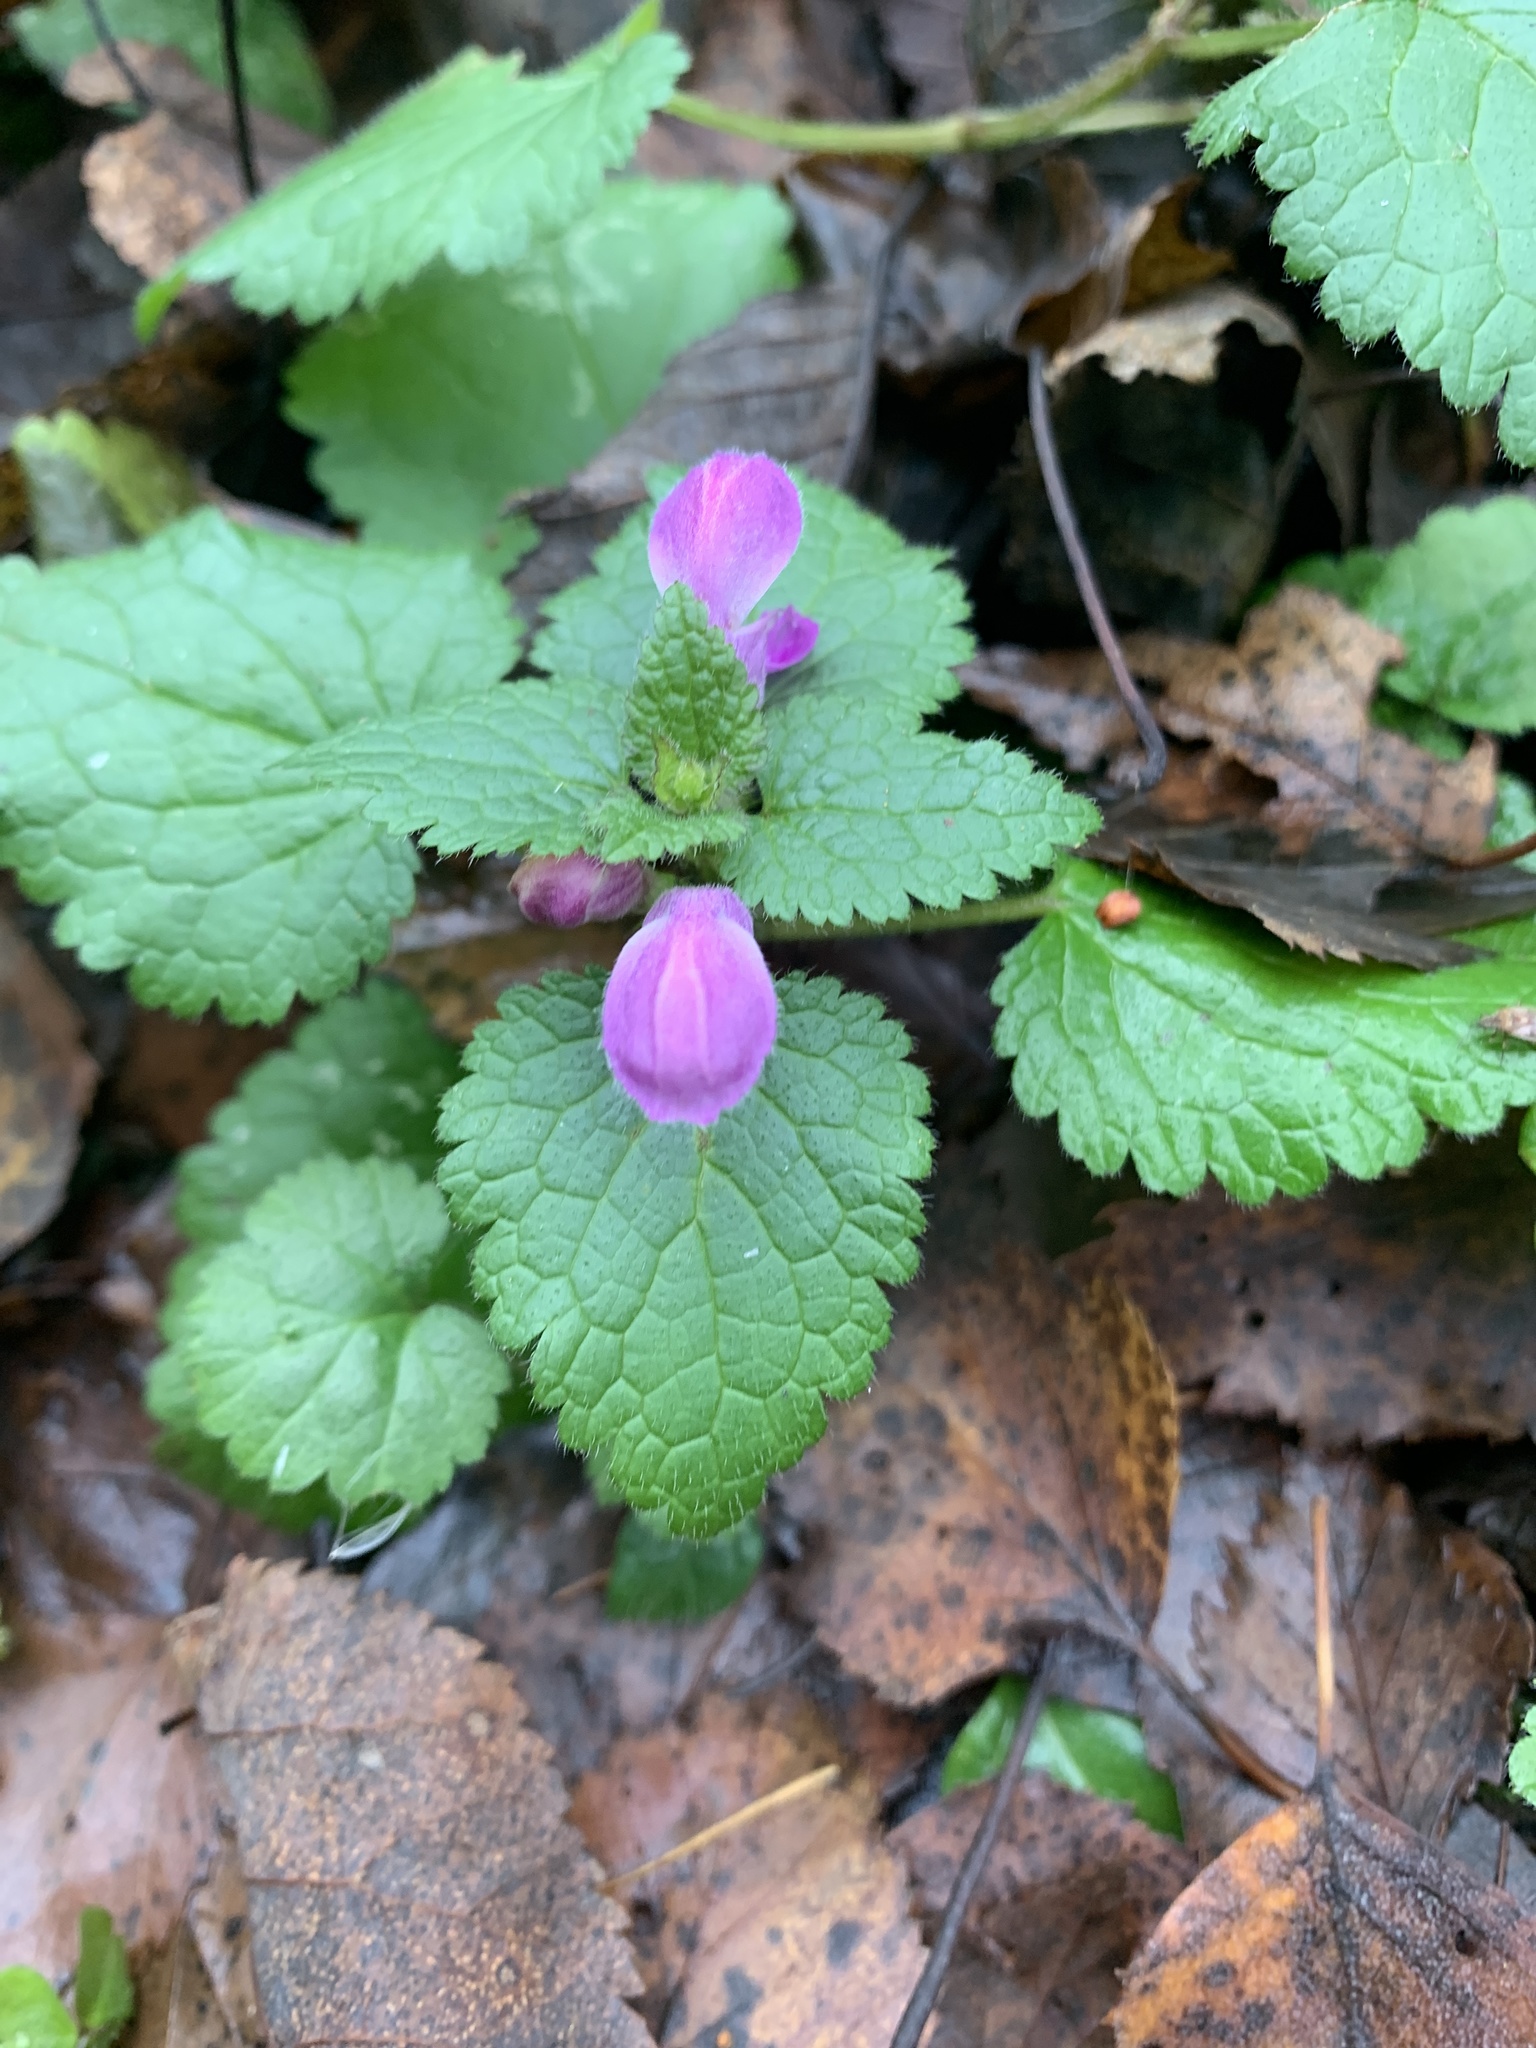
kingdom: Plantae
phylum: Tracheophyta
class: Magnoliopsida
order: Lamiales
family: Lamiaceae
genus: Lamium
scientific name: Lamium maculatum
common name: Spotted dead-nettle
